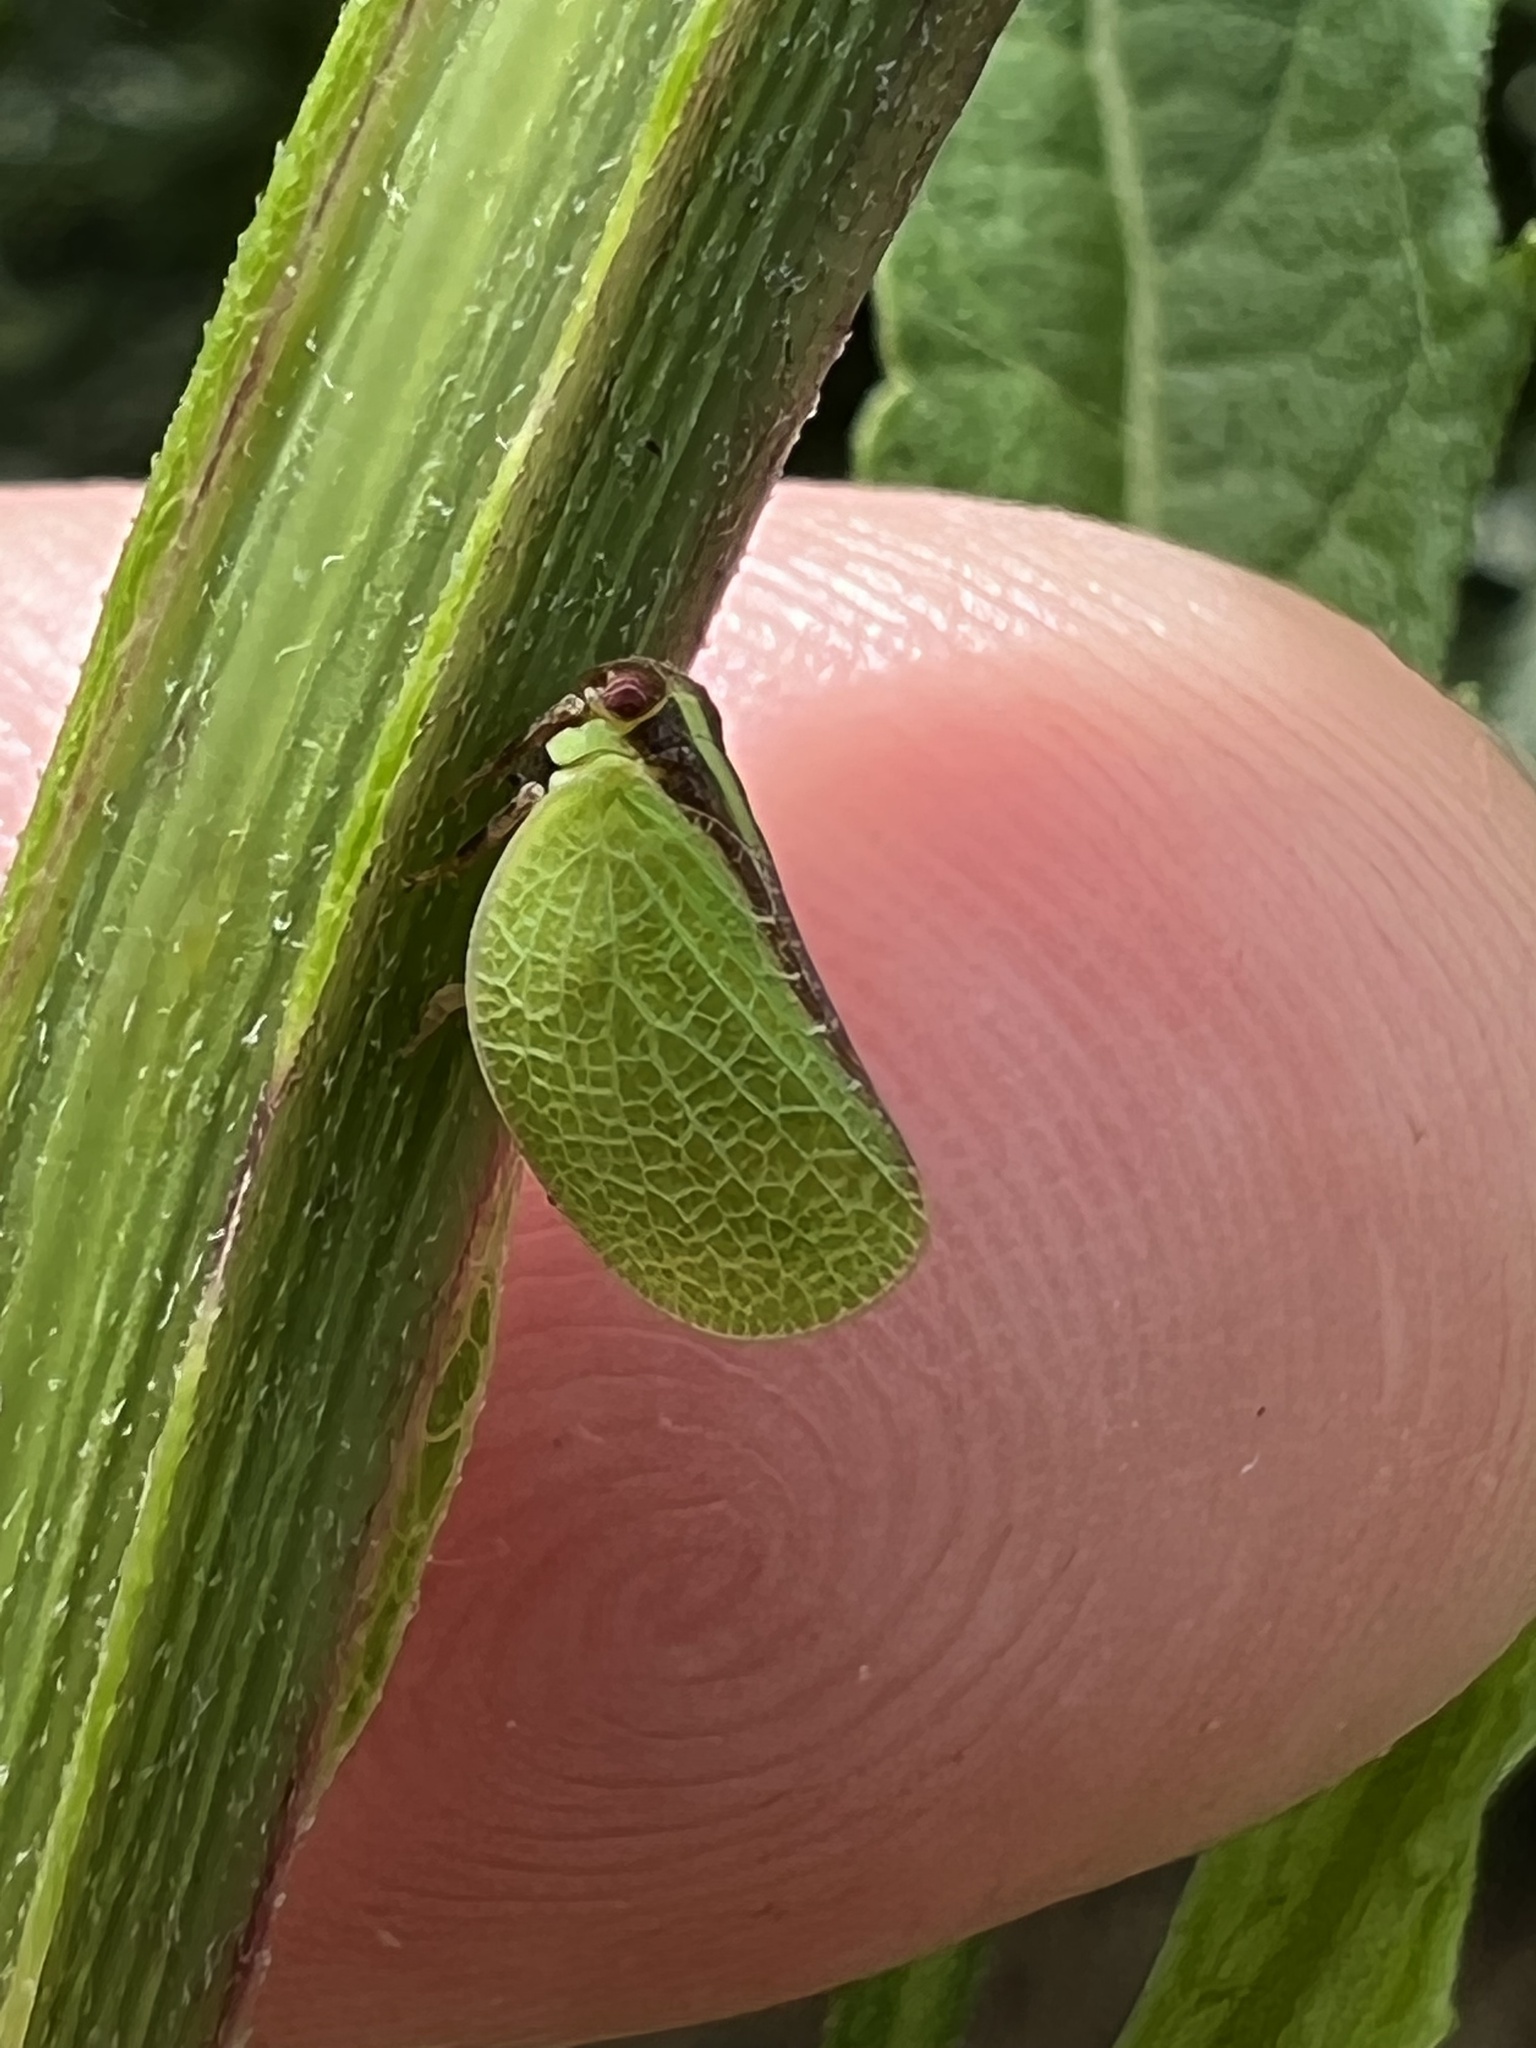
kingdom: Animalia
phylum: Arthropoda
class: Insecta
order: Hemiptera
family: Acanaloniidae
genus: Acanalonia
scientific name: Acanalonia bivittata
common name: Two-striped planthopper
